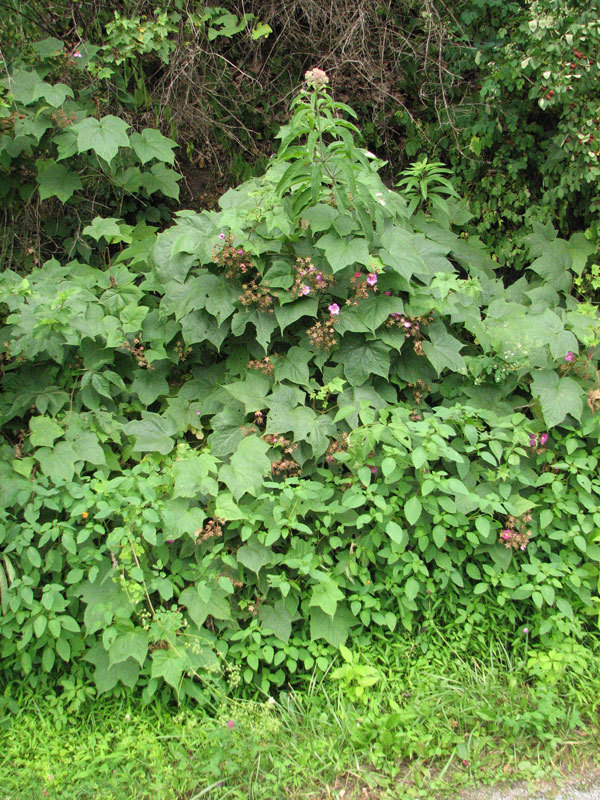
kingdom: Plantae
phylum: Tracheophyta
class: Magnoliopsida
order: Rosales
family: Rosaceae
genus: Rubus
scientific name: Rubus odoratus
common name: Purple-flowered raspberry
